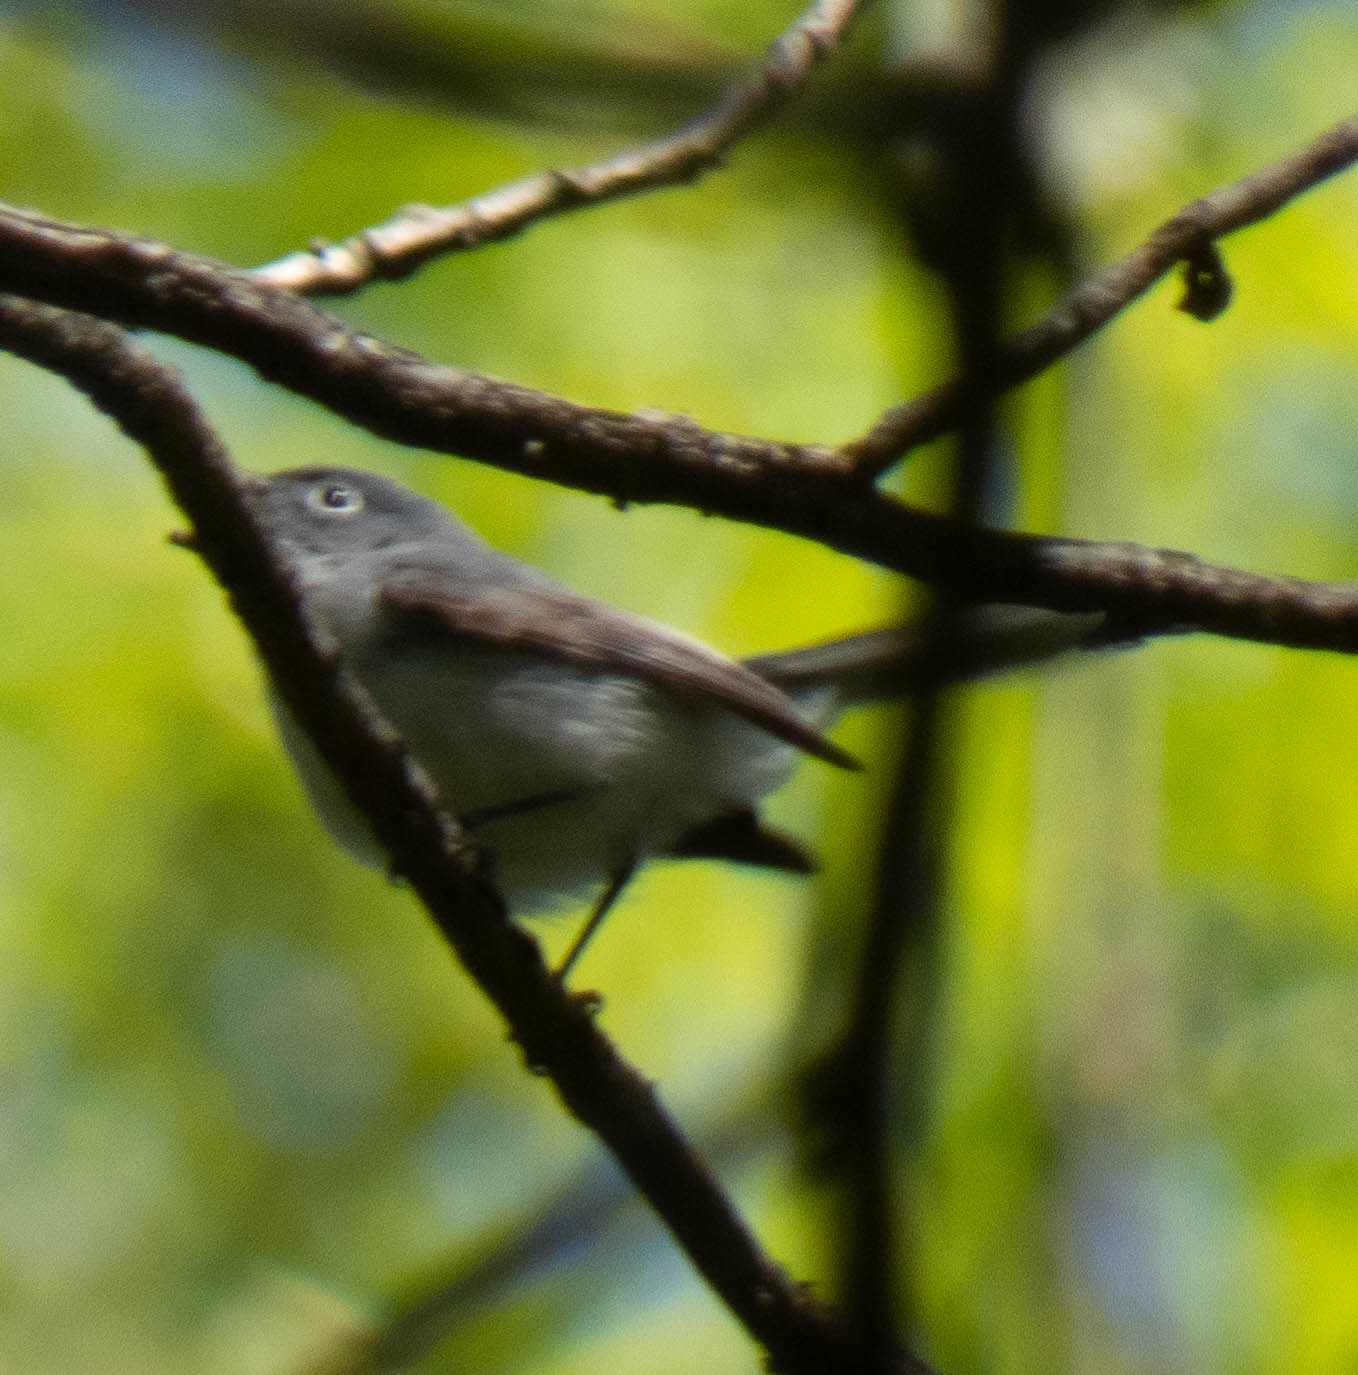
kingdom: Animalia
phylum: Chordata
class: Aves
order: Passeriformes
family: Polioptilidae
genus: Polioptila
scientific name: Polioptila caerulea
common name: Blue-gray gnatcatcher
